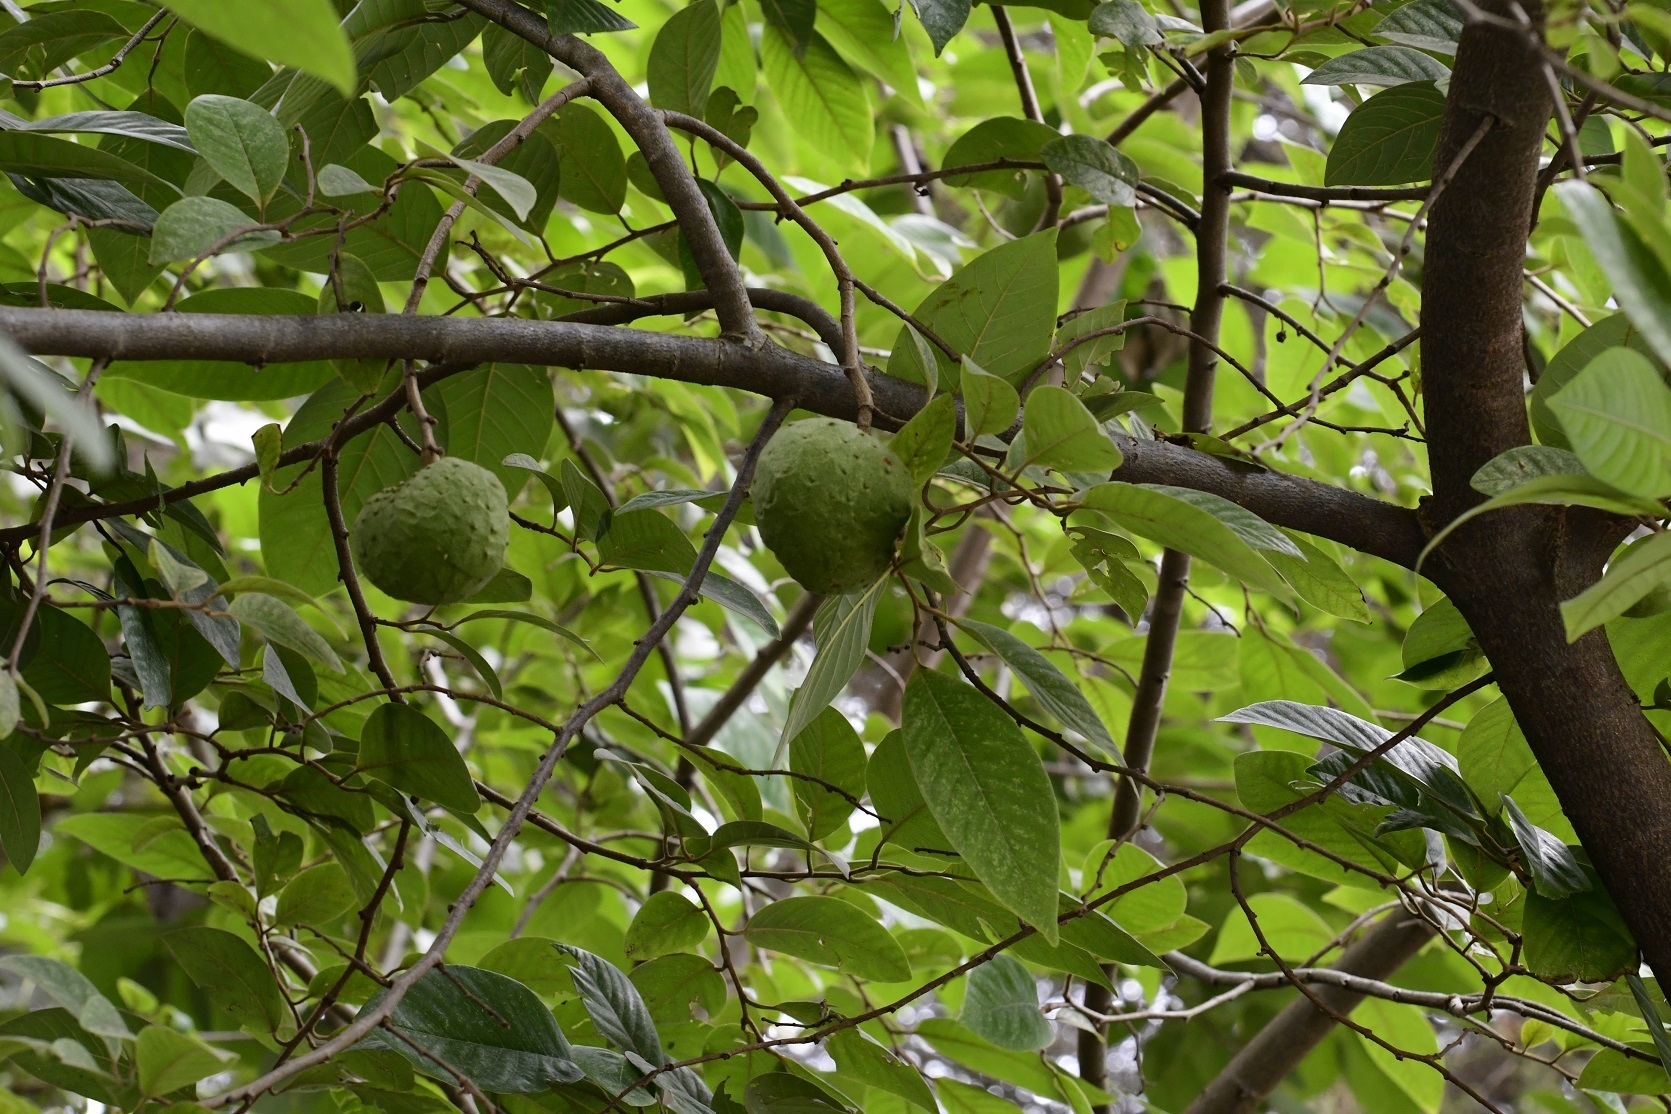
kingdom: Plantae
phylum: Tracheophyta
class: Magnoliopsida
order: Magnoliales
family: Annonaceae
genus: Annona
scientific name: Annona cherimola
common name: Cherimoya
